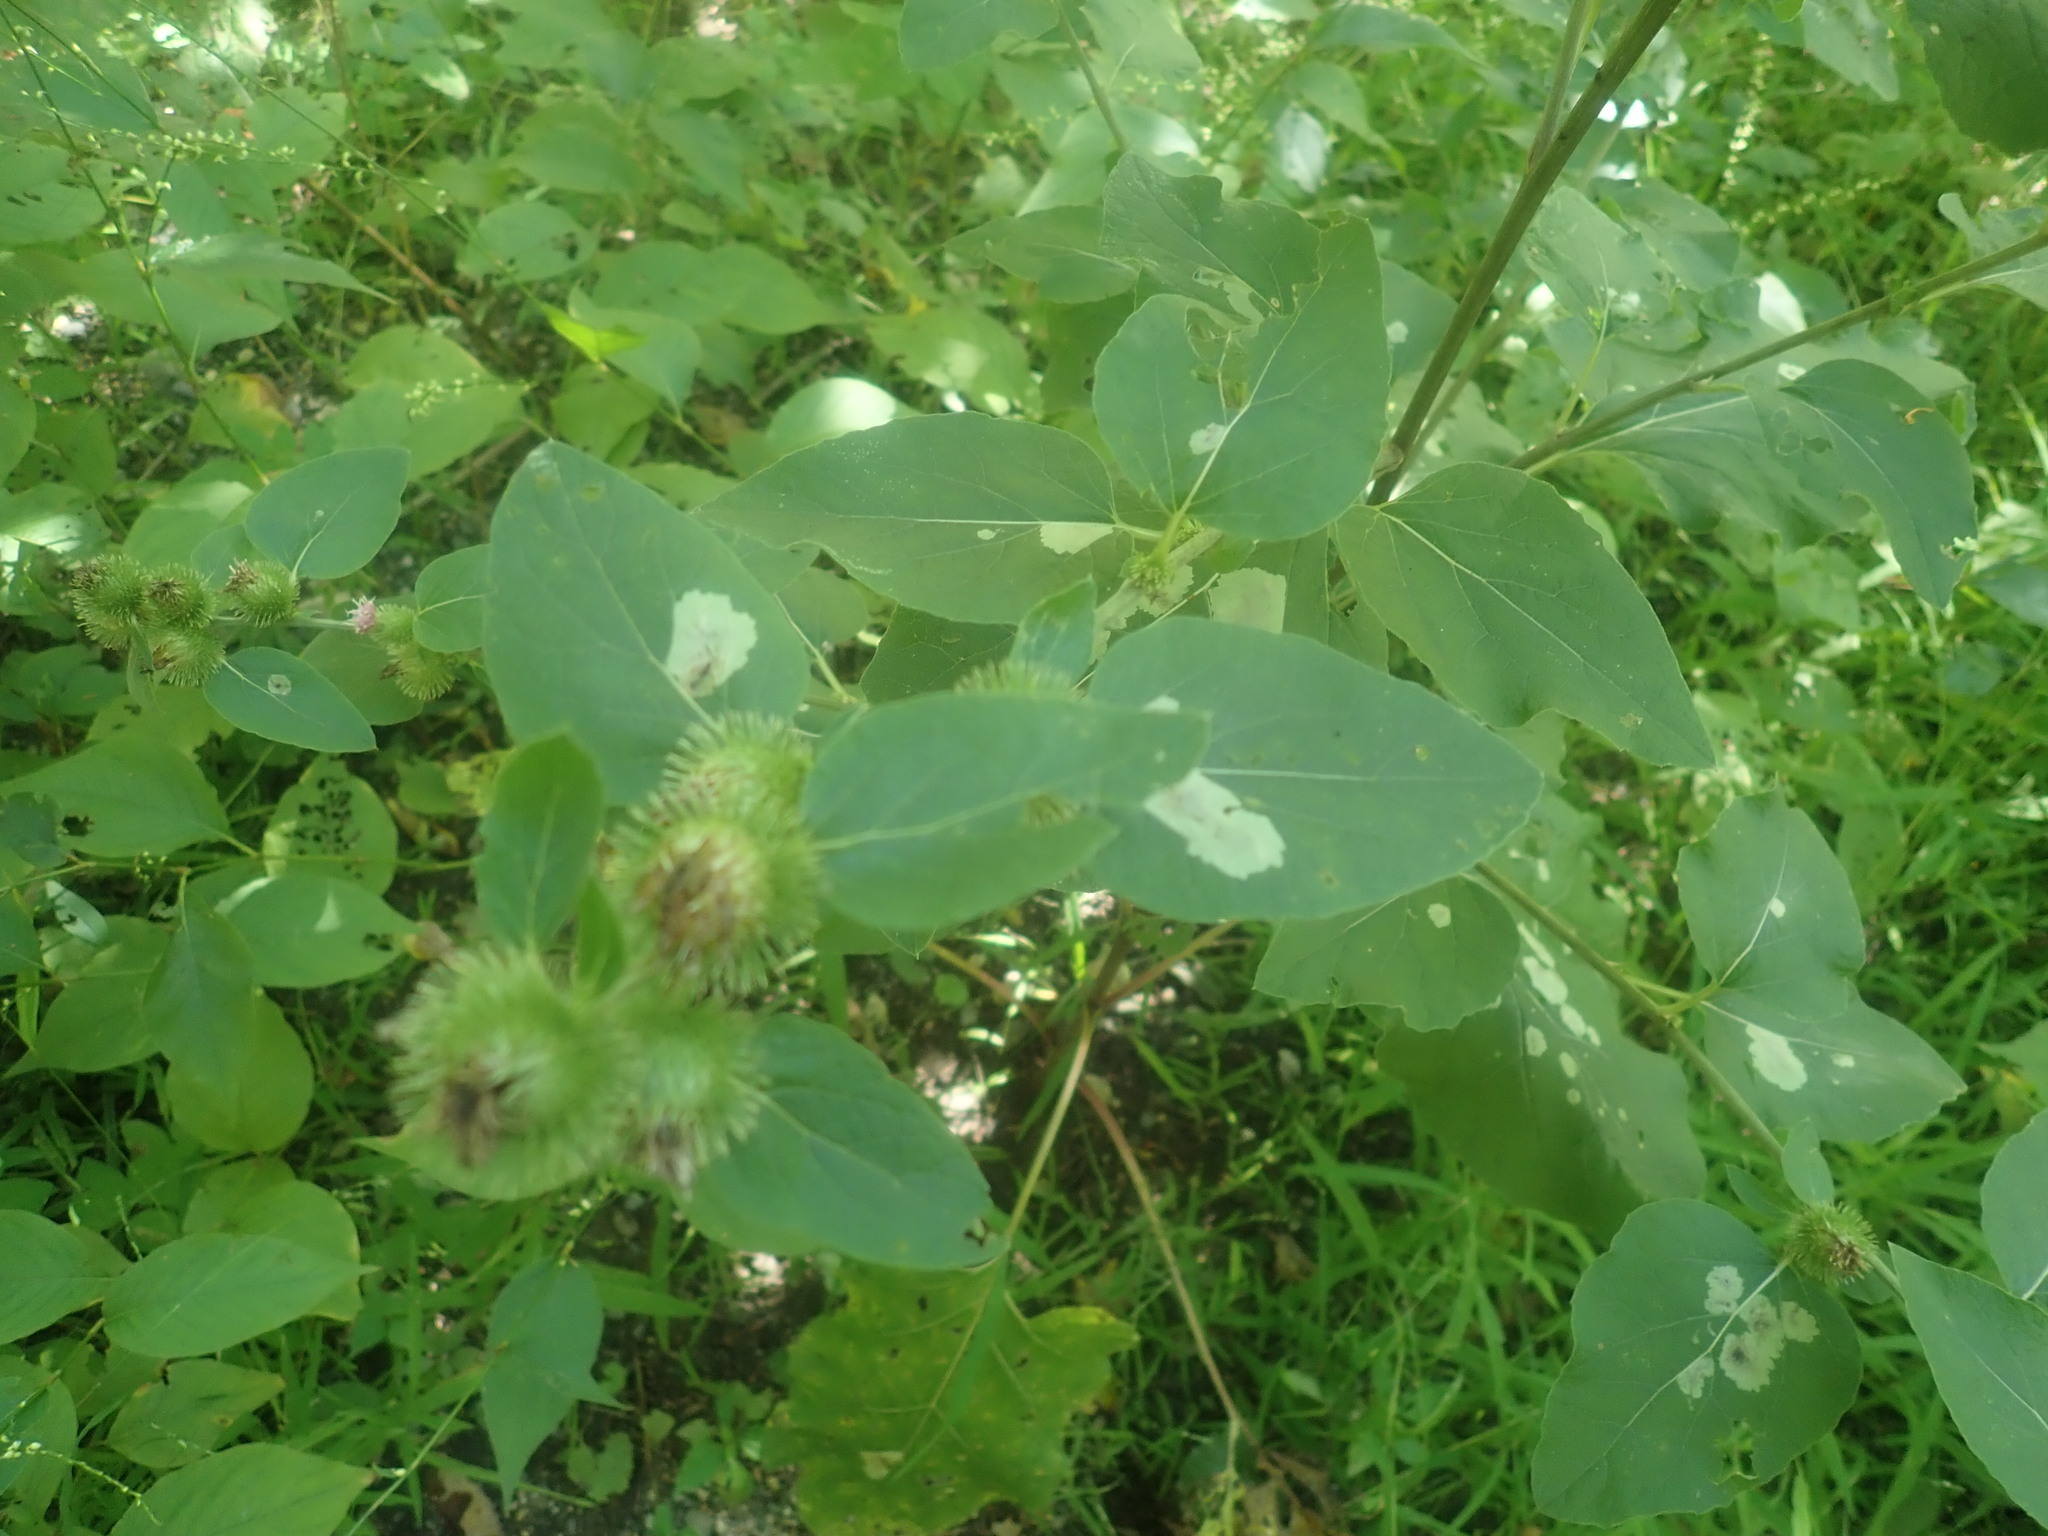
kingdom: Plantae
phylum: Tracheophyta
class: Magnoliopsida
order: Asterales
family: Asteraceae
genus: Arctium
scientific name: Arctium
